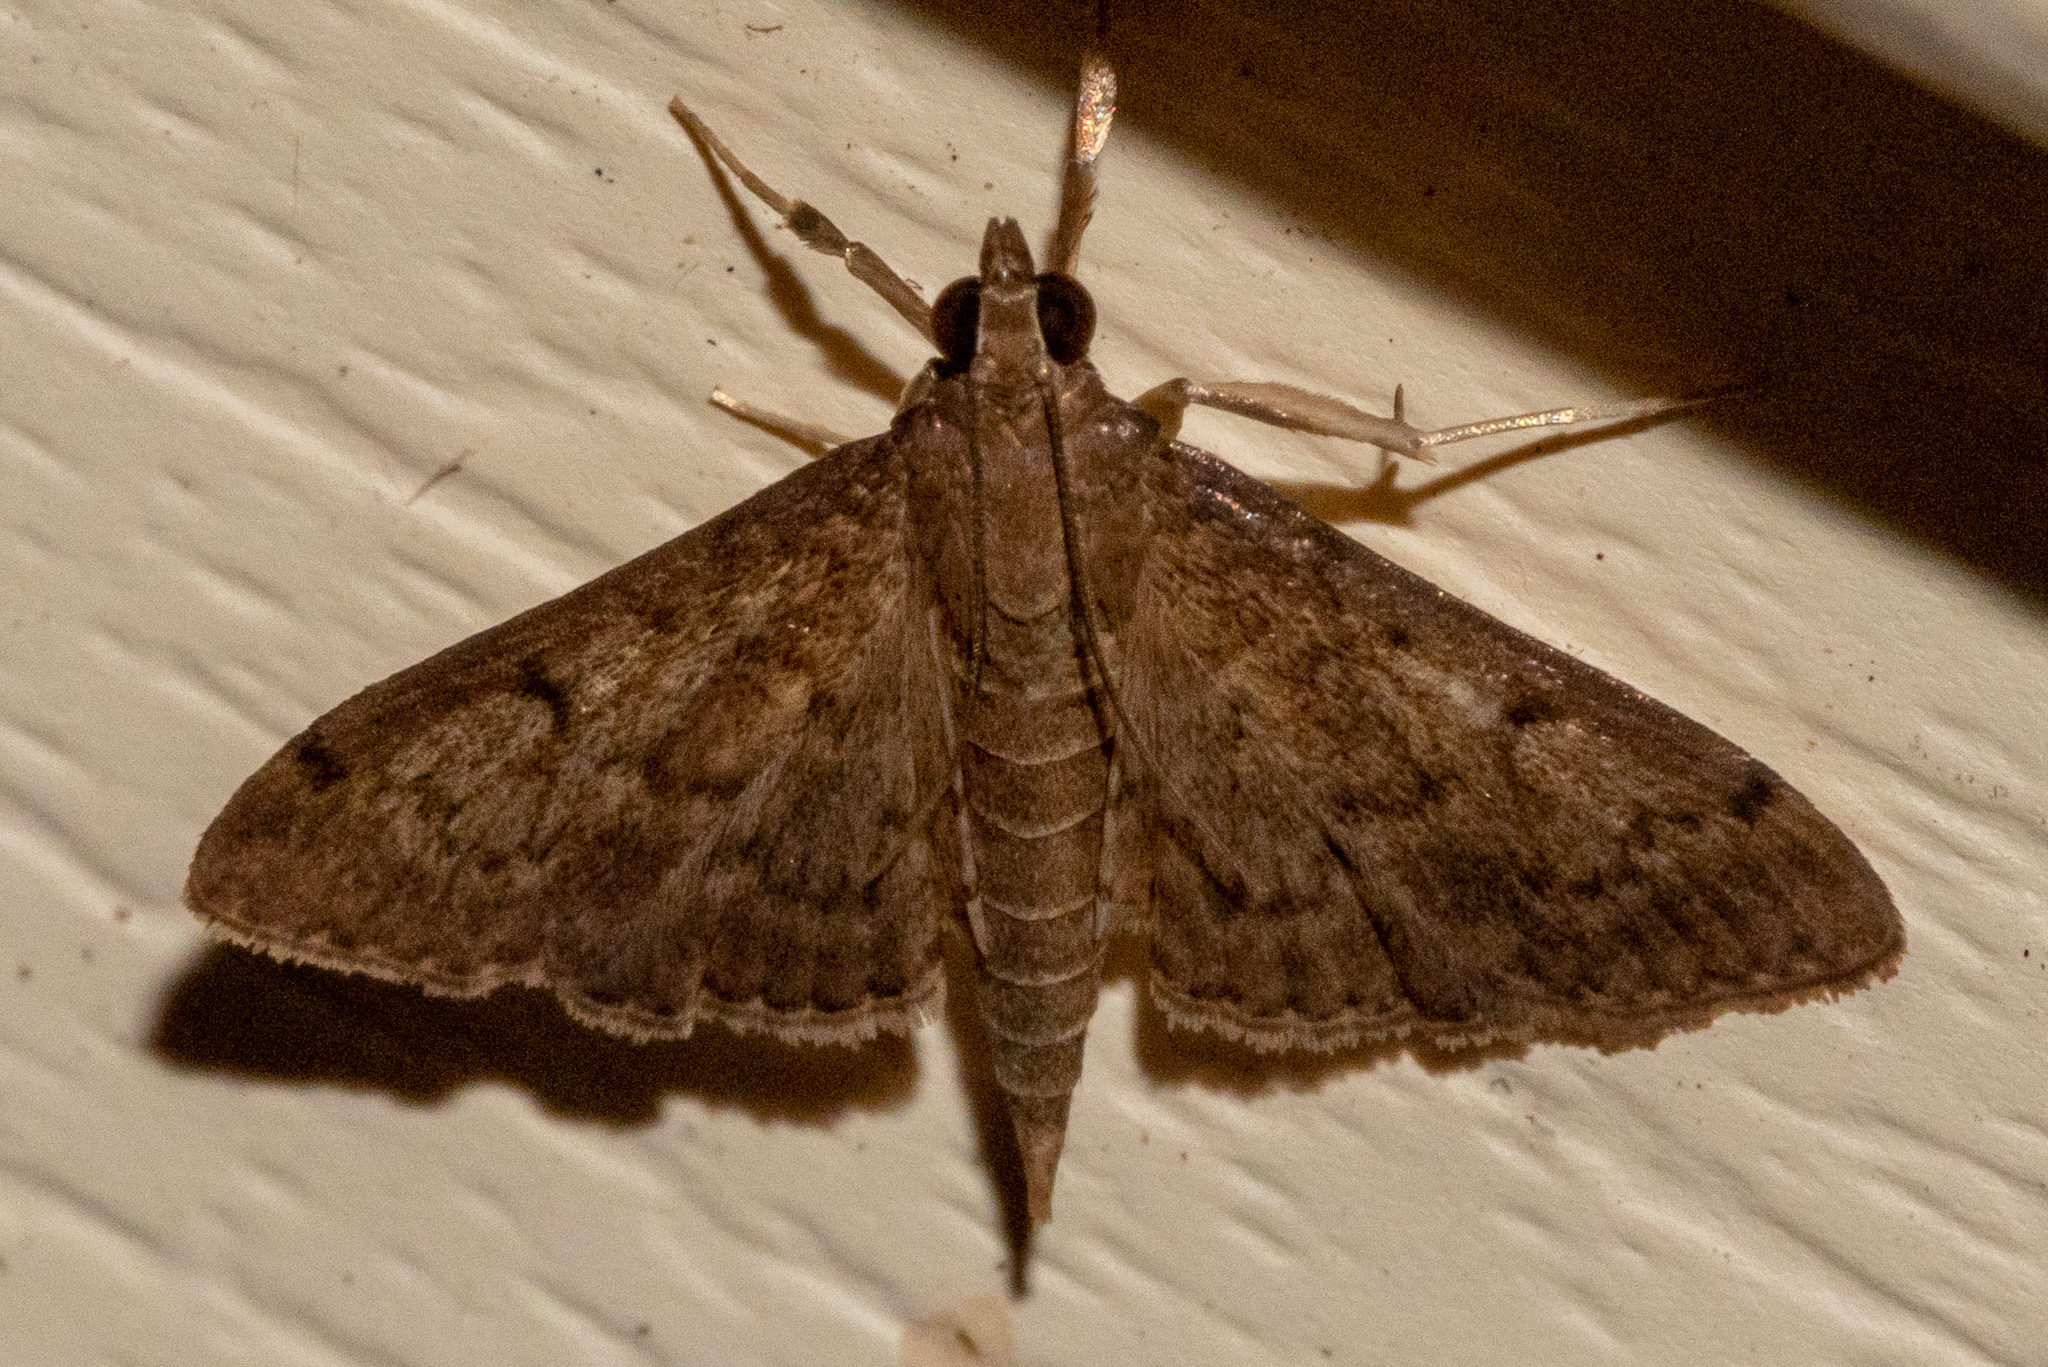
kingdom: Animalia
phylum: Arthropoda
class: Insecta
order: Lepidoptera
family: Crambidae
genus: Herpetogramma
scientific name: Herpetogramma phaeopteralis
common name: Dusky herpetogramma moth
